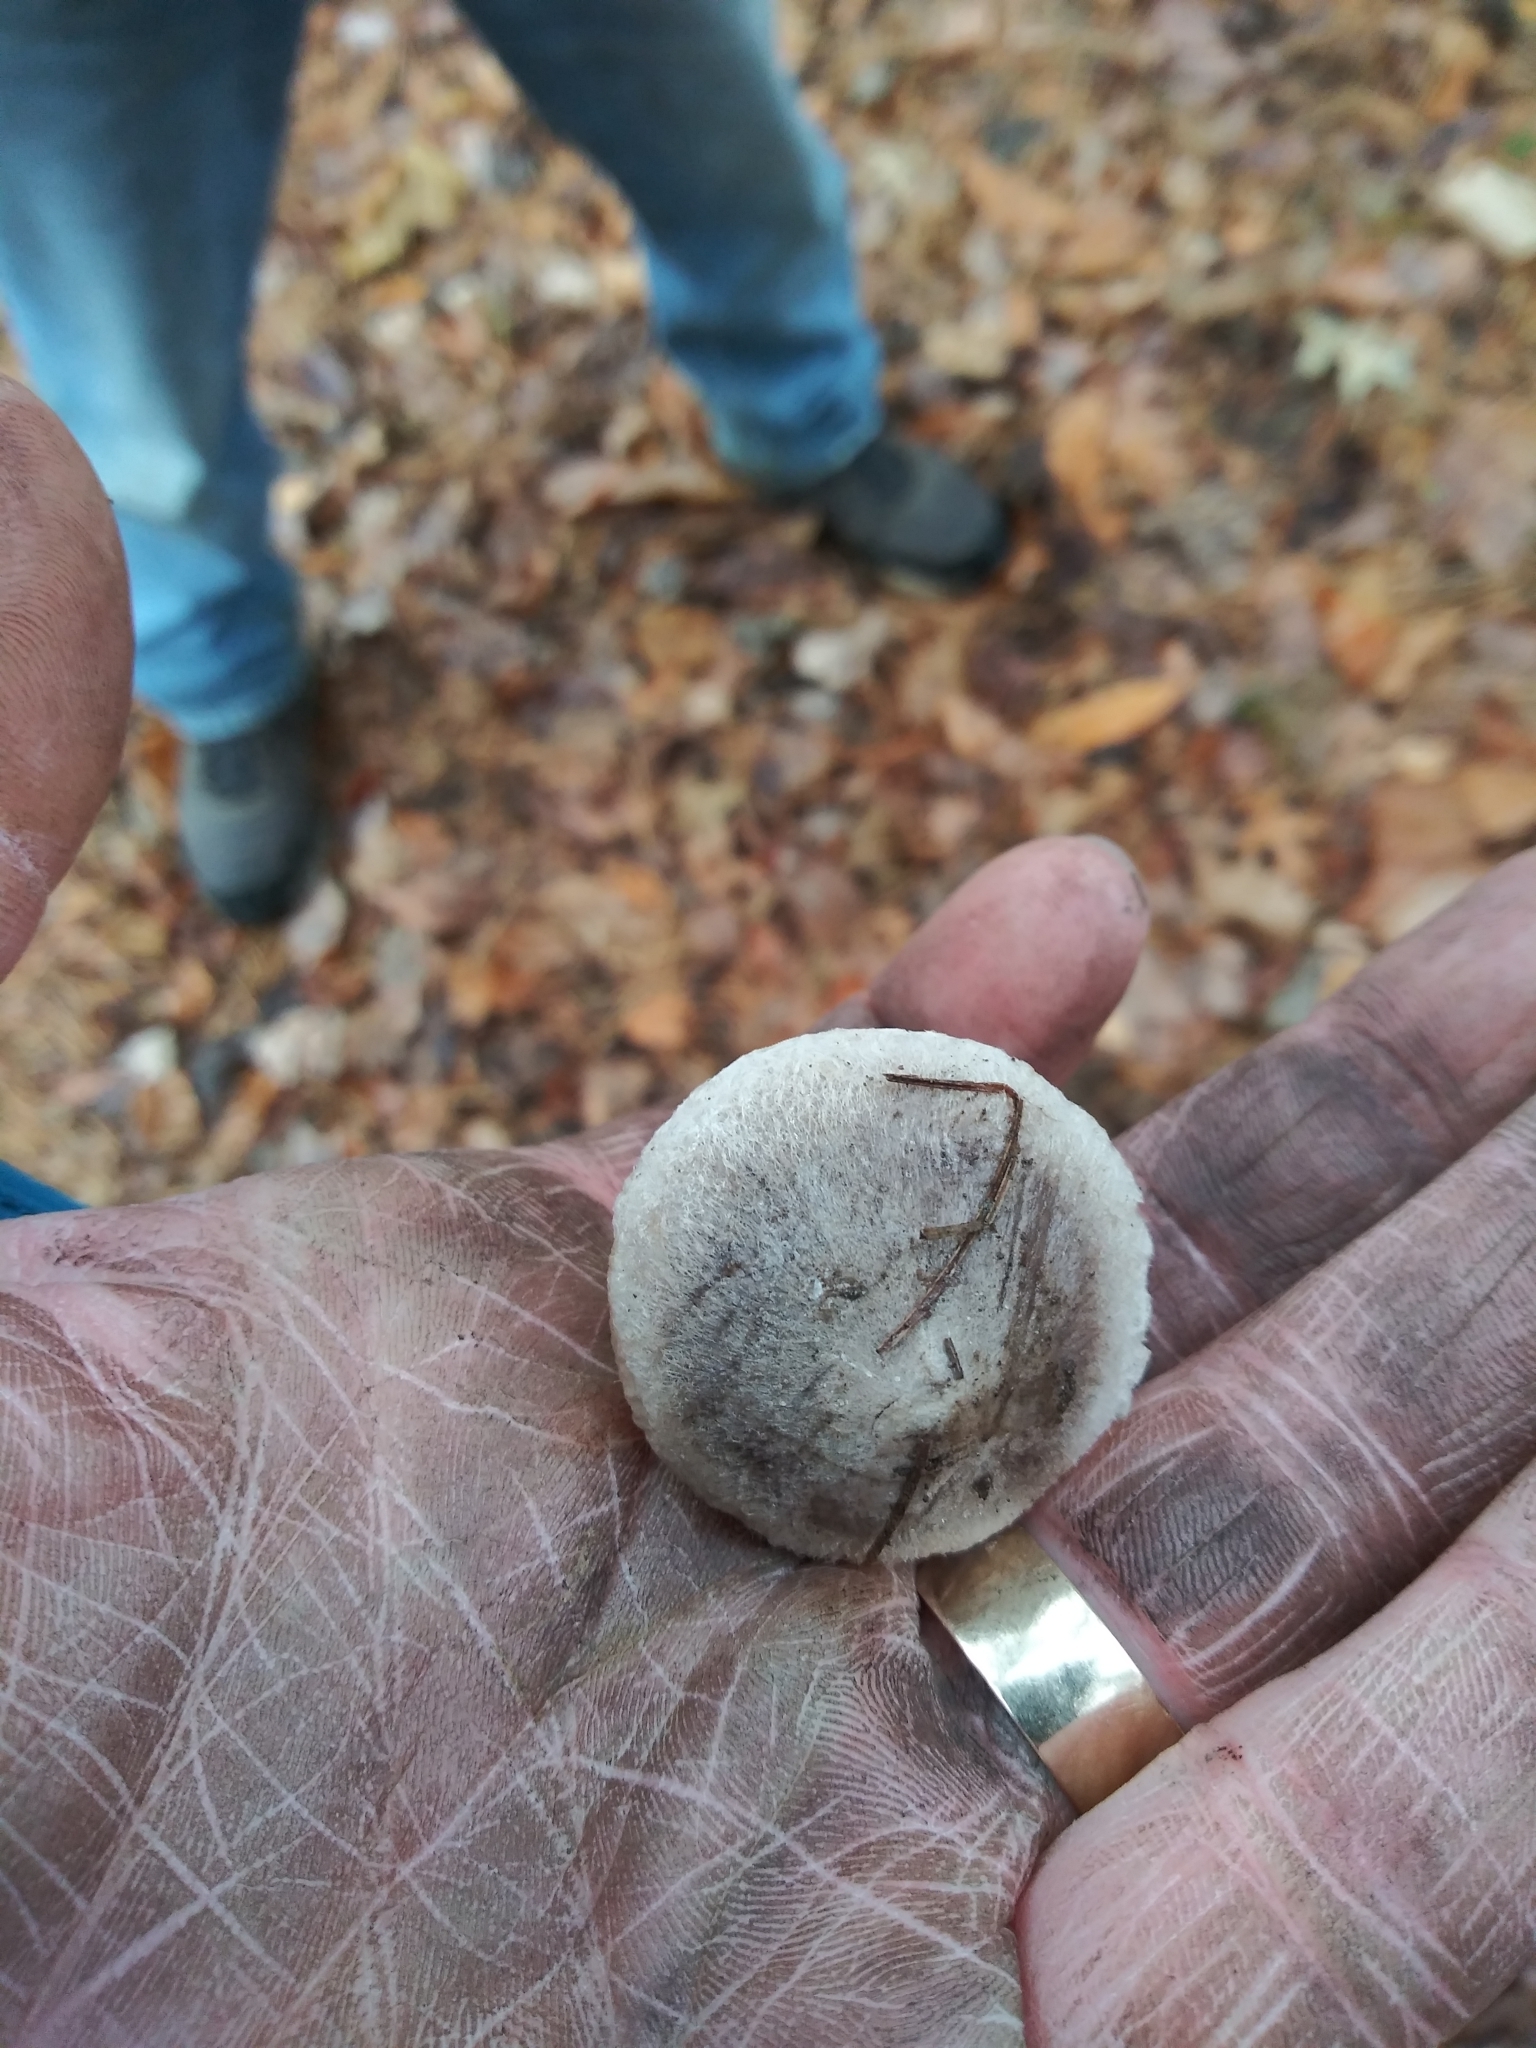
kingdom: Fungi
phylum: Basidiomycota
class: Agaricomycetes
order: Agaricales
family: Tricholomataceae
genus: Tricholoma
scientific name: Tricholoma terreum
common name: Grey knight
